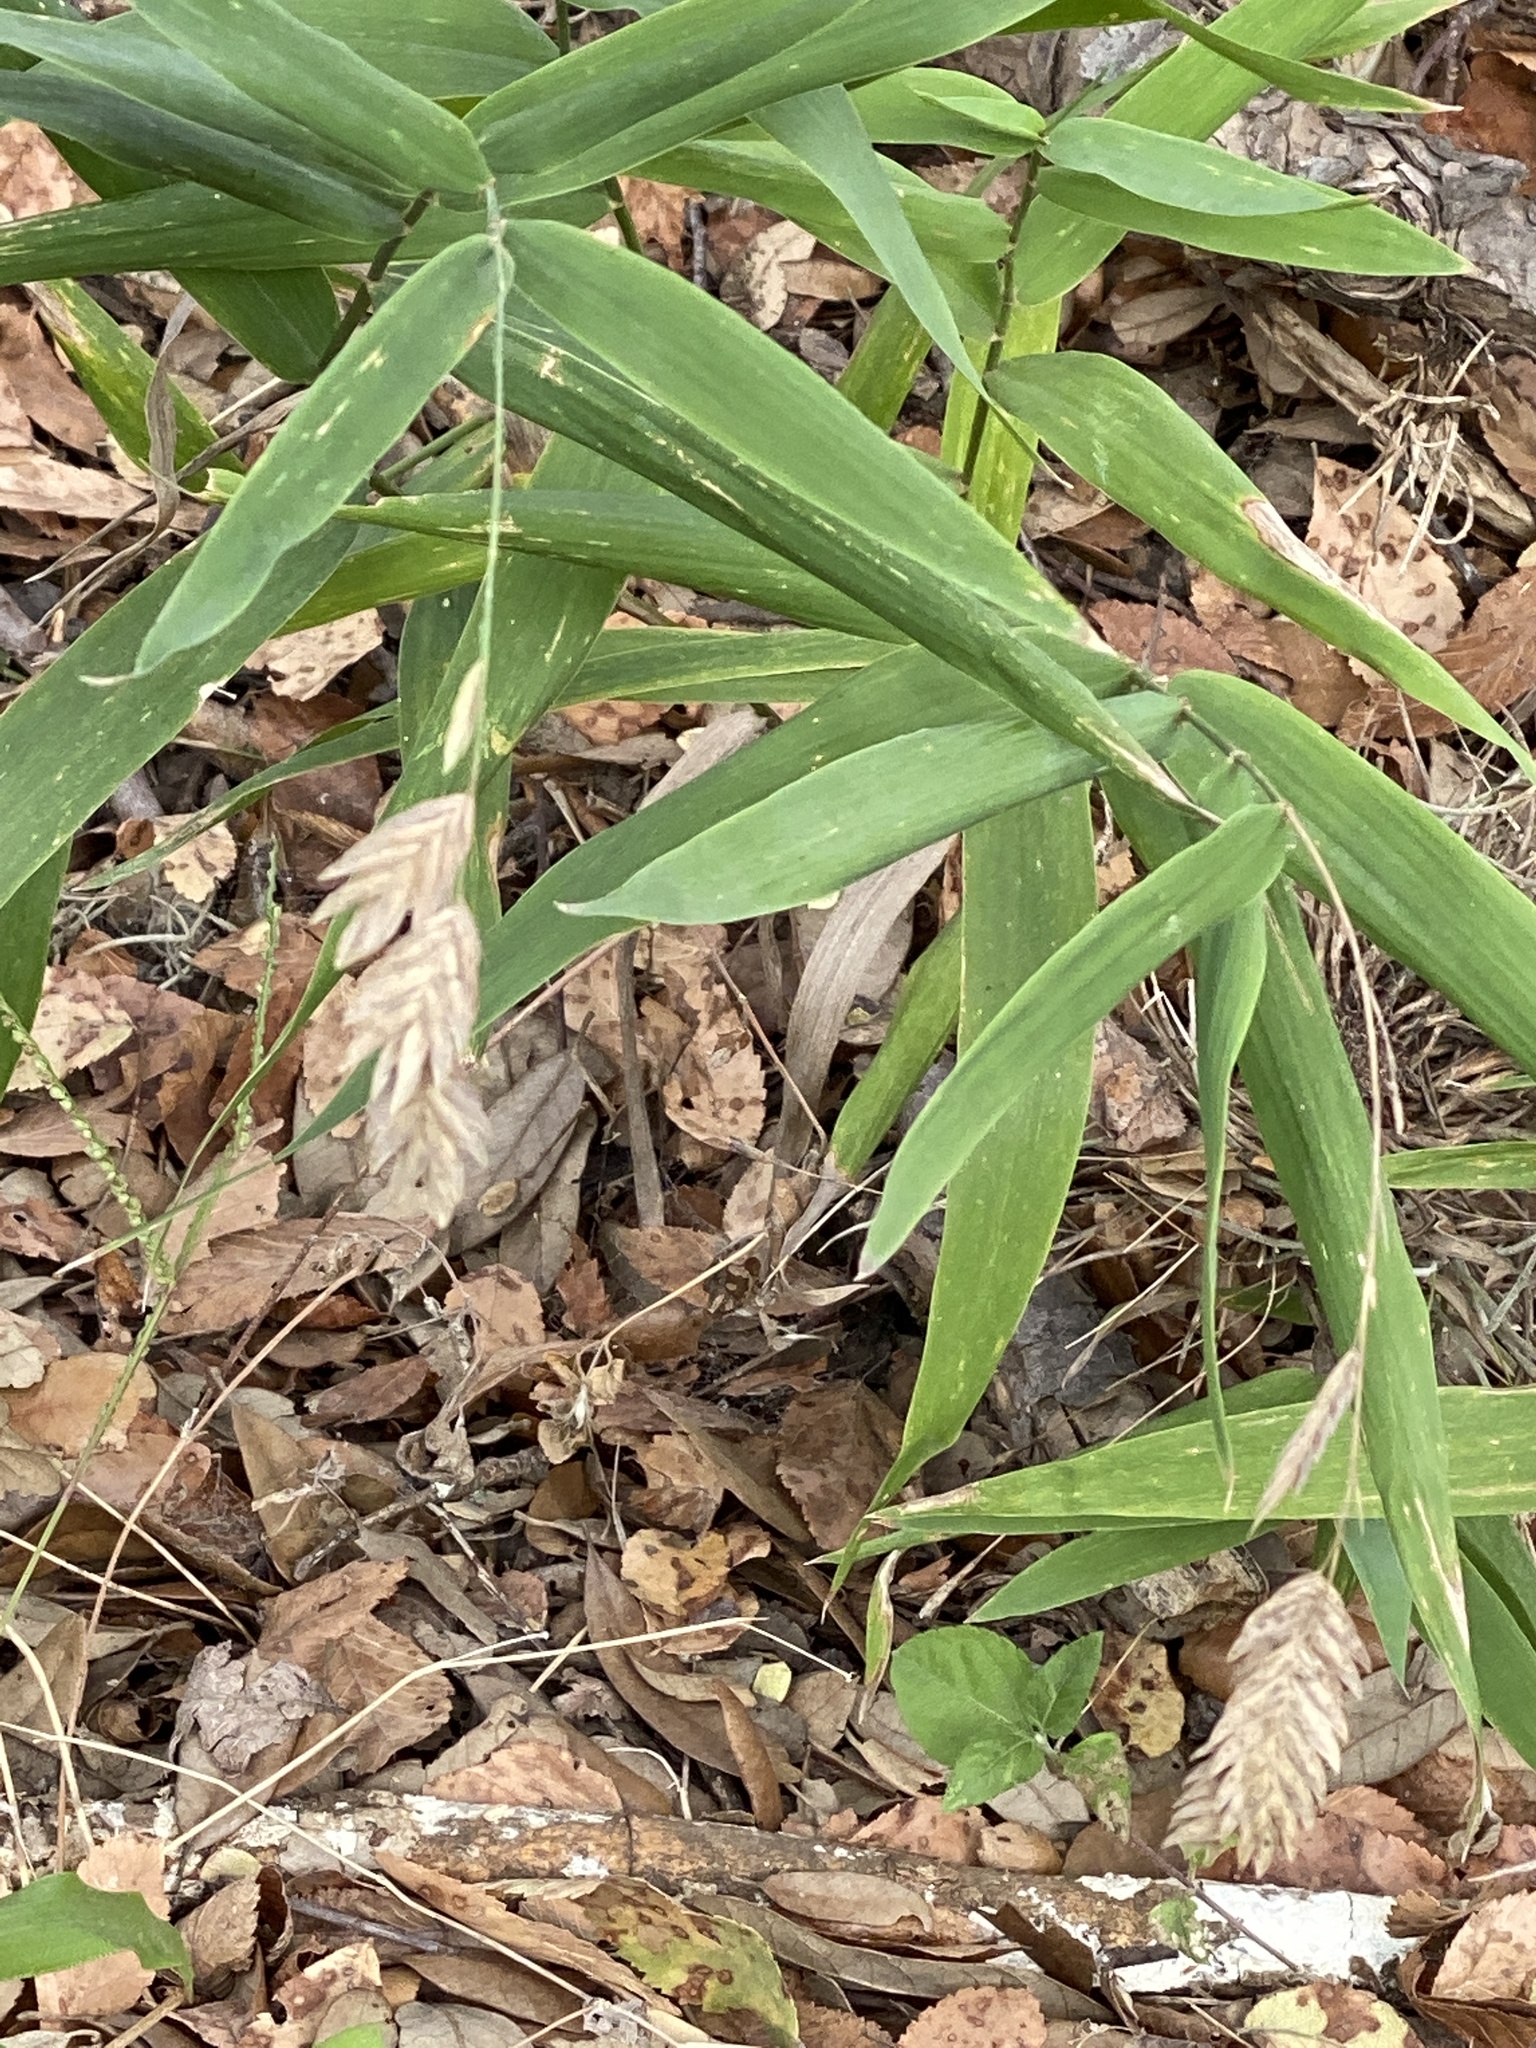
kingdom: Plantae
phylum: Tracheophyta
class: Liliopsida
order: Poales
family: Poaceae
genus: Chasmanthium
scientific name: Chasmanthium latifolium
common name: Broad-leaved chasmanthium
